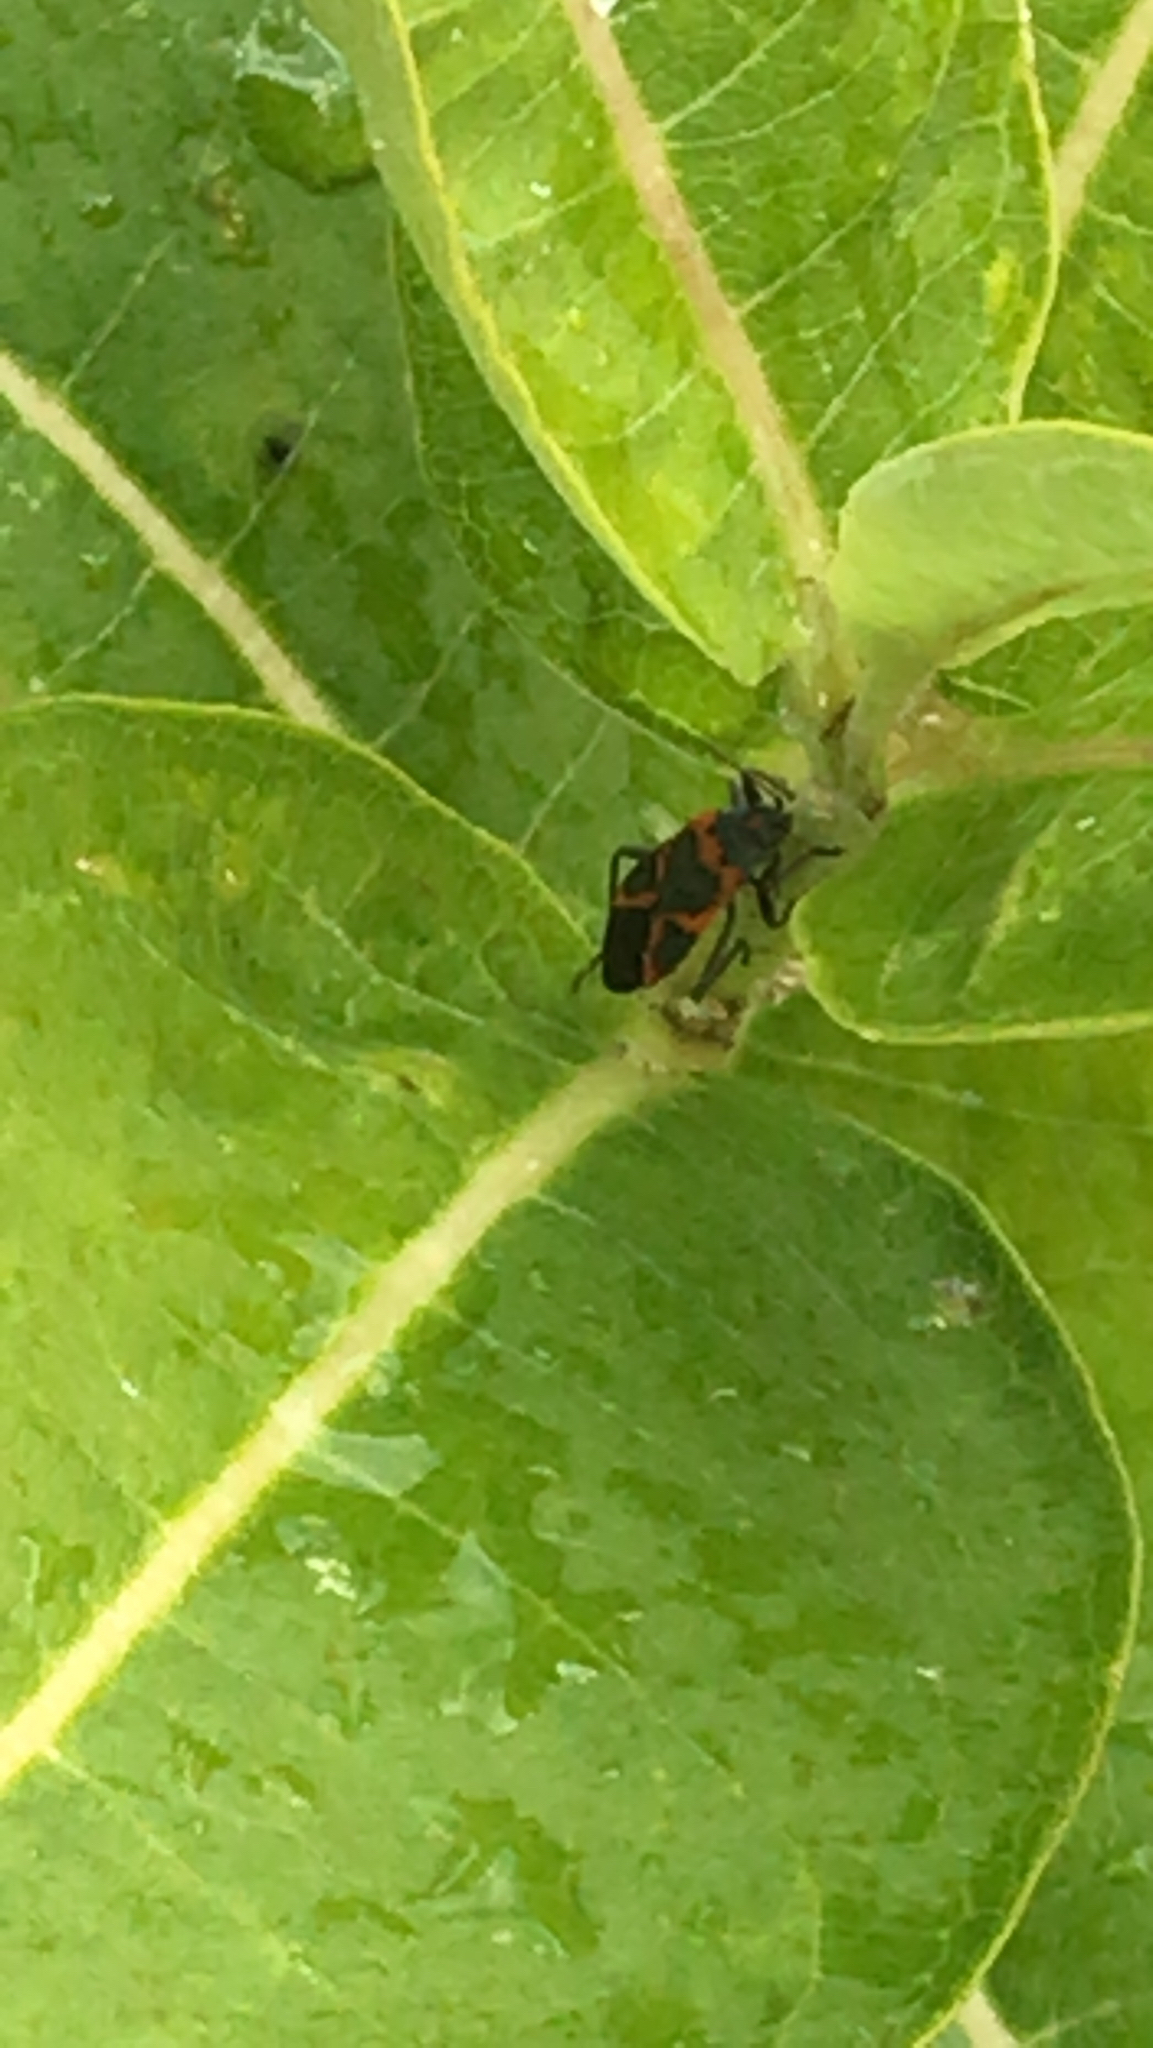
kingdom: Animalia
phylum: Arthropoda
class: Insecta
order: Hemiptera
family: Lygaeidae
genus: Lygaeus
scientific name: Lygaeus kalmii
